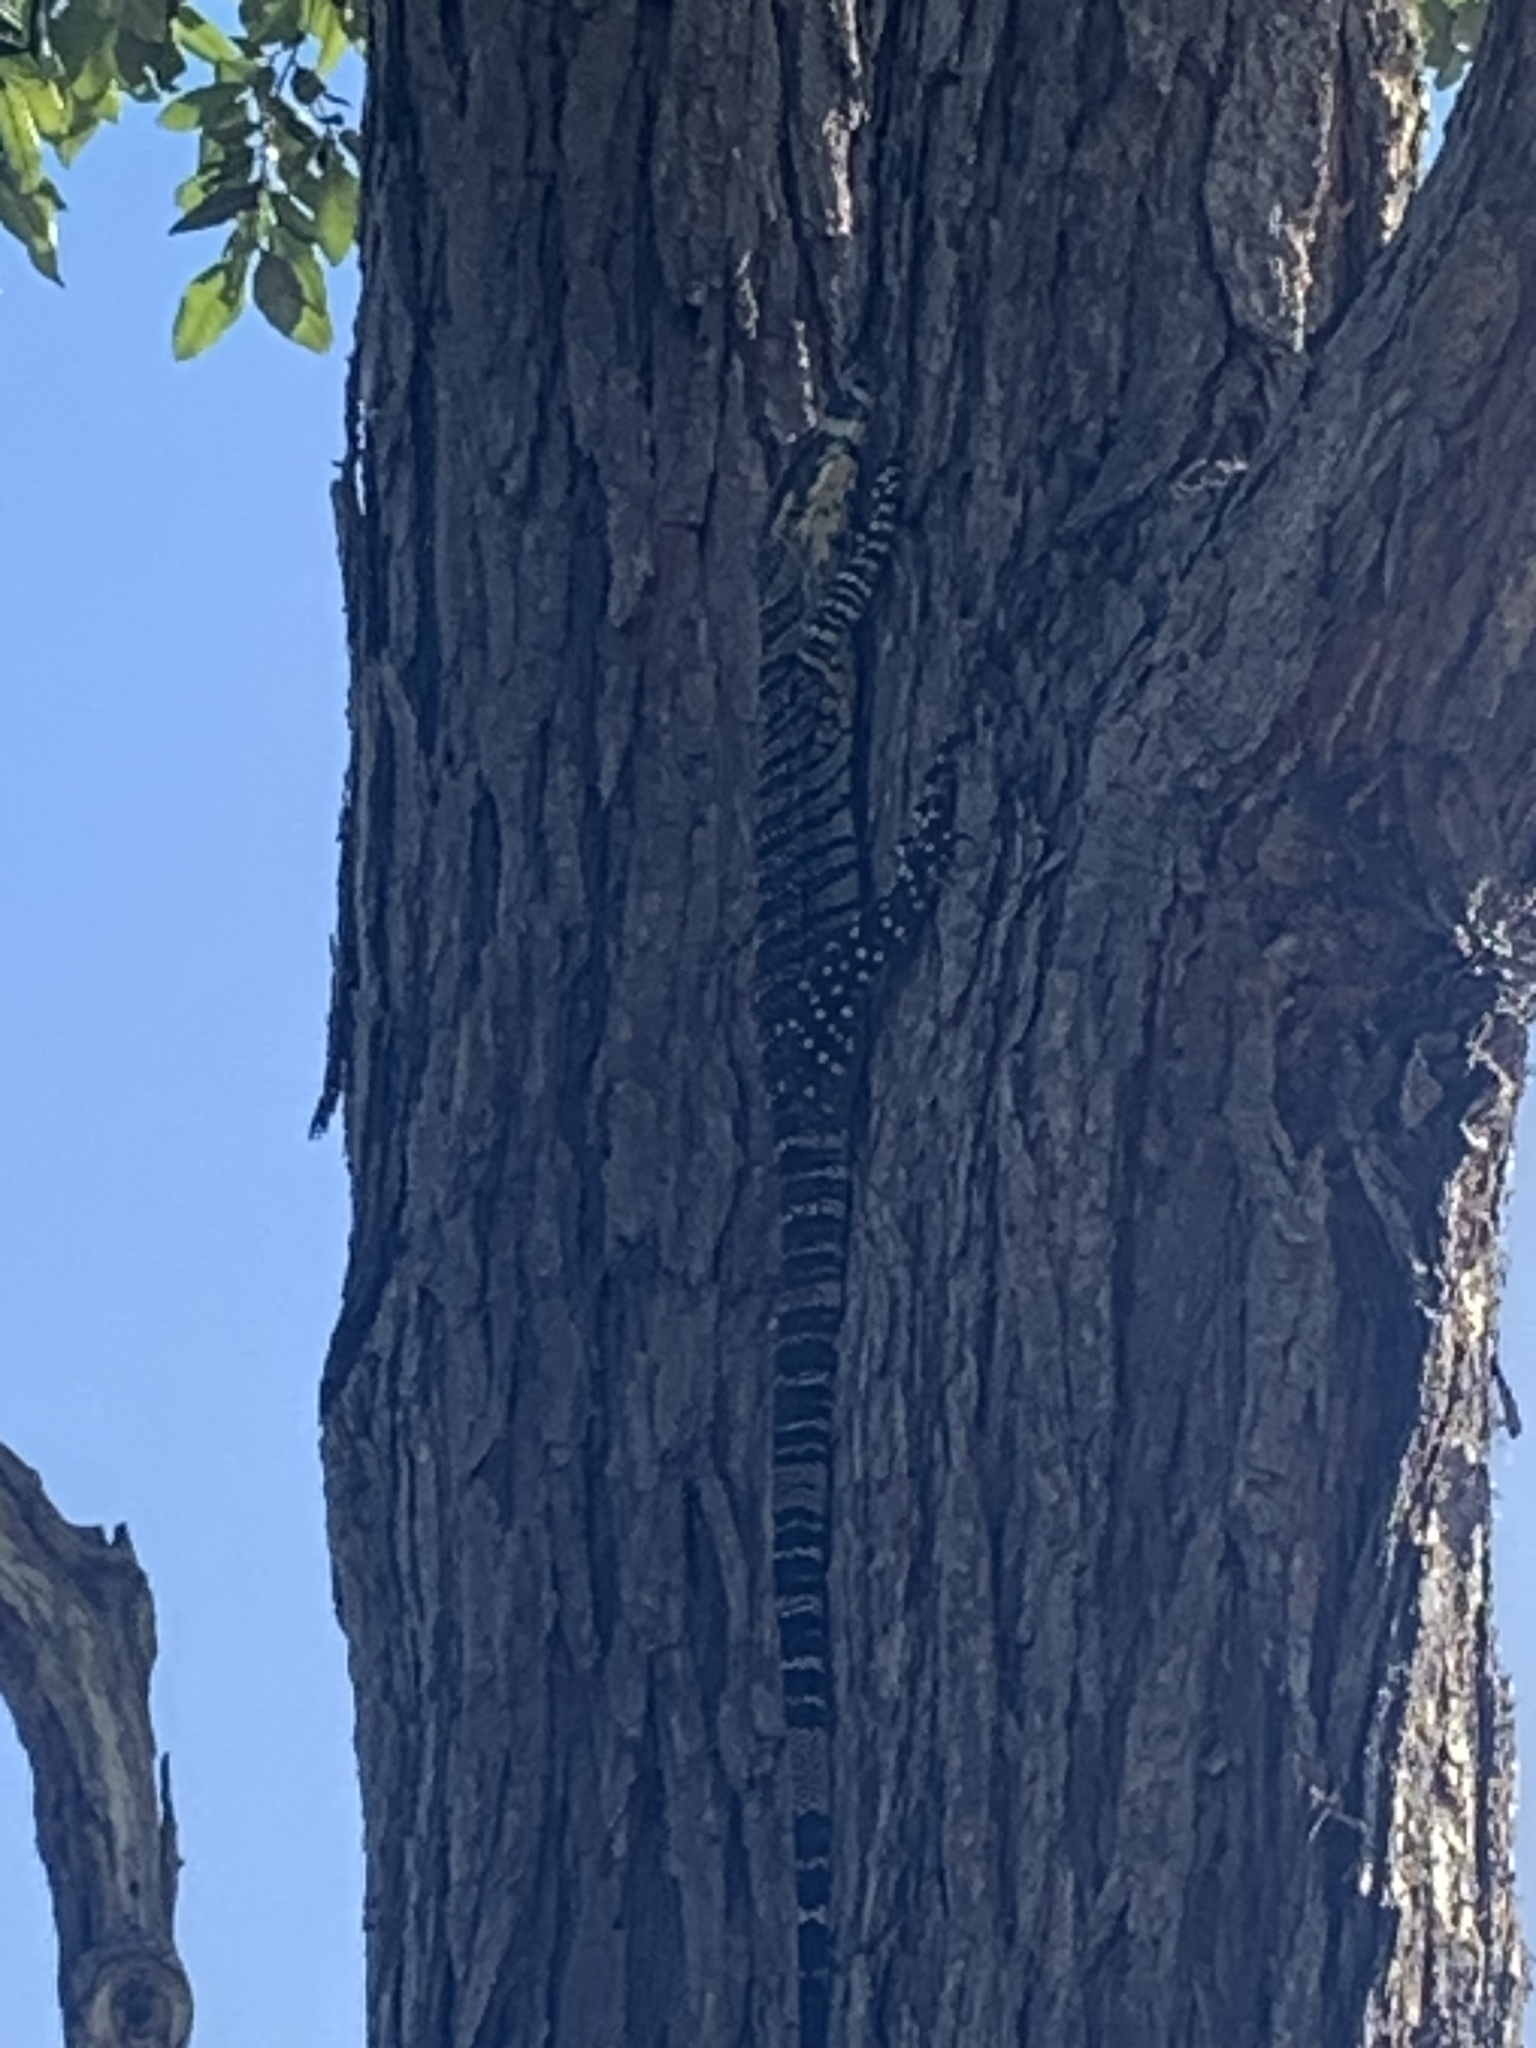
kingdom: Animalia
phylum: Chordata
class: Squamata
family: Varanidae
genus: Varanus
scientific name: Varanus varius
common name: Lace monitor
